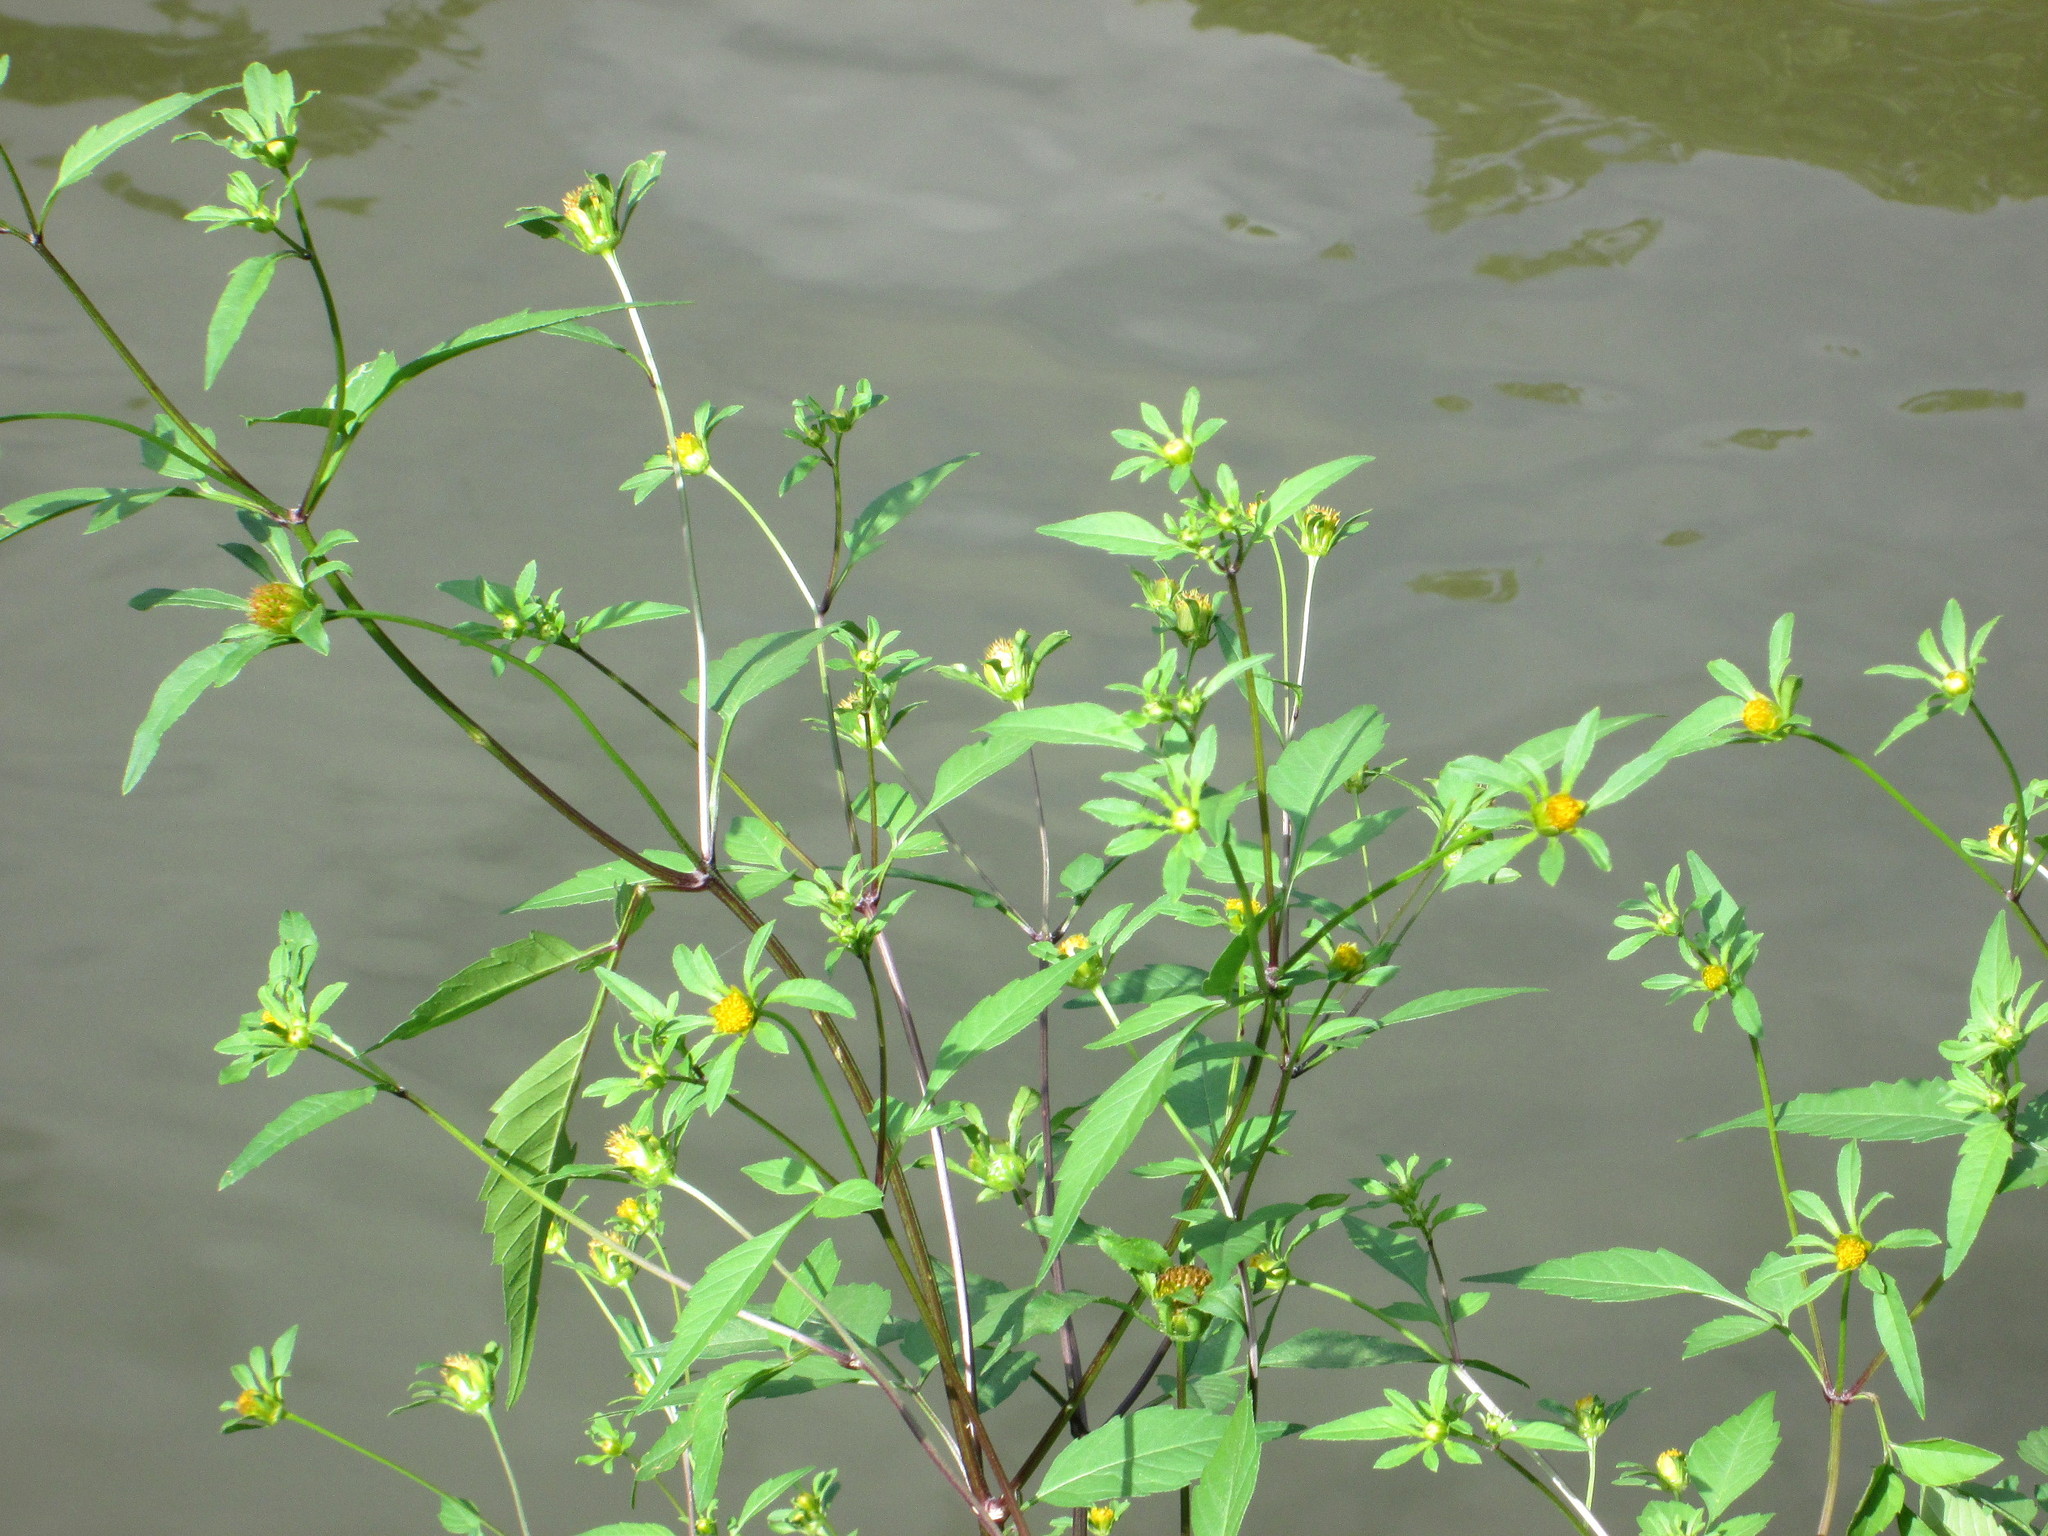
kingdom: Plantae
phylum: Tracheophyta
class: Magnoliopsida
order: Asterales
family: Asteraceae
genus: Bidens
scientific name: Bidens frondosa
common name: Beggarticks
